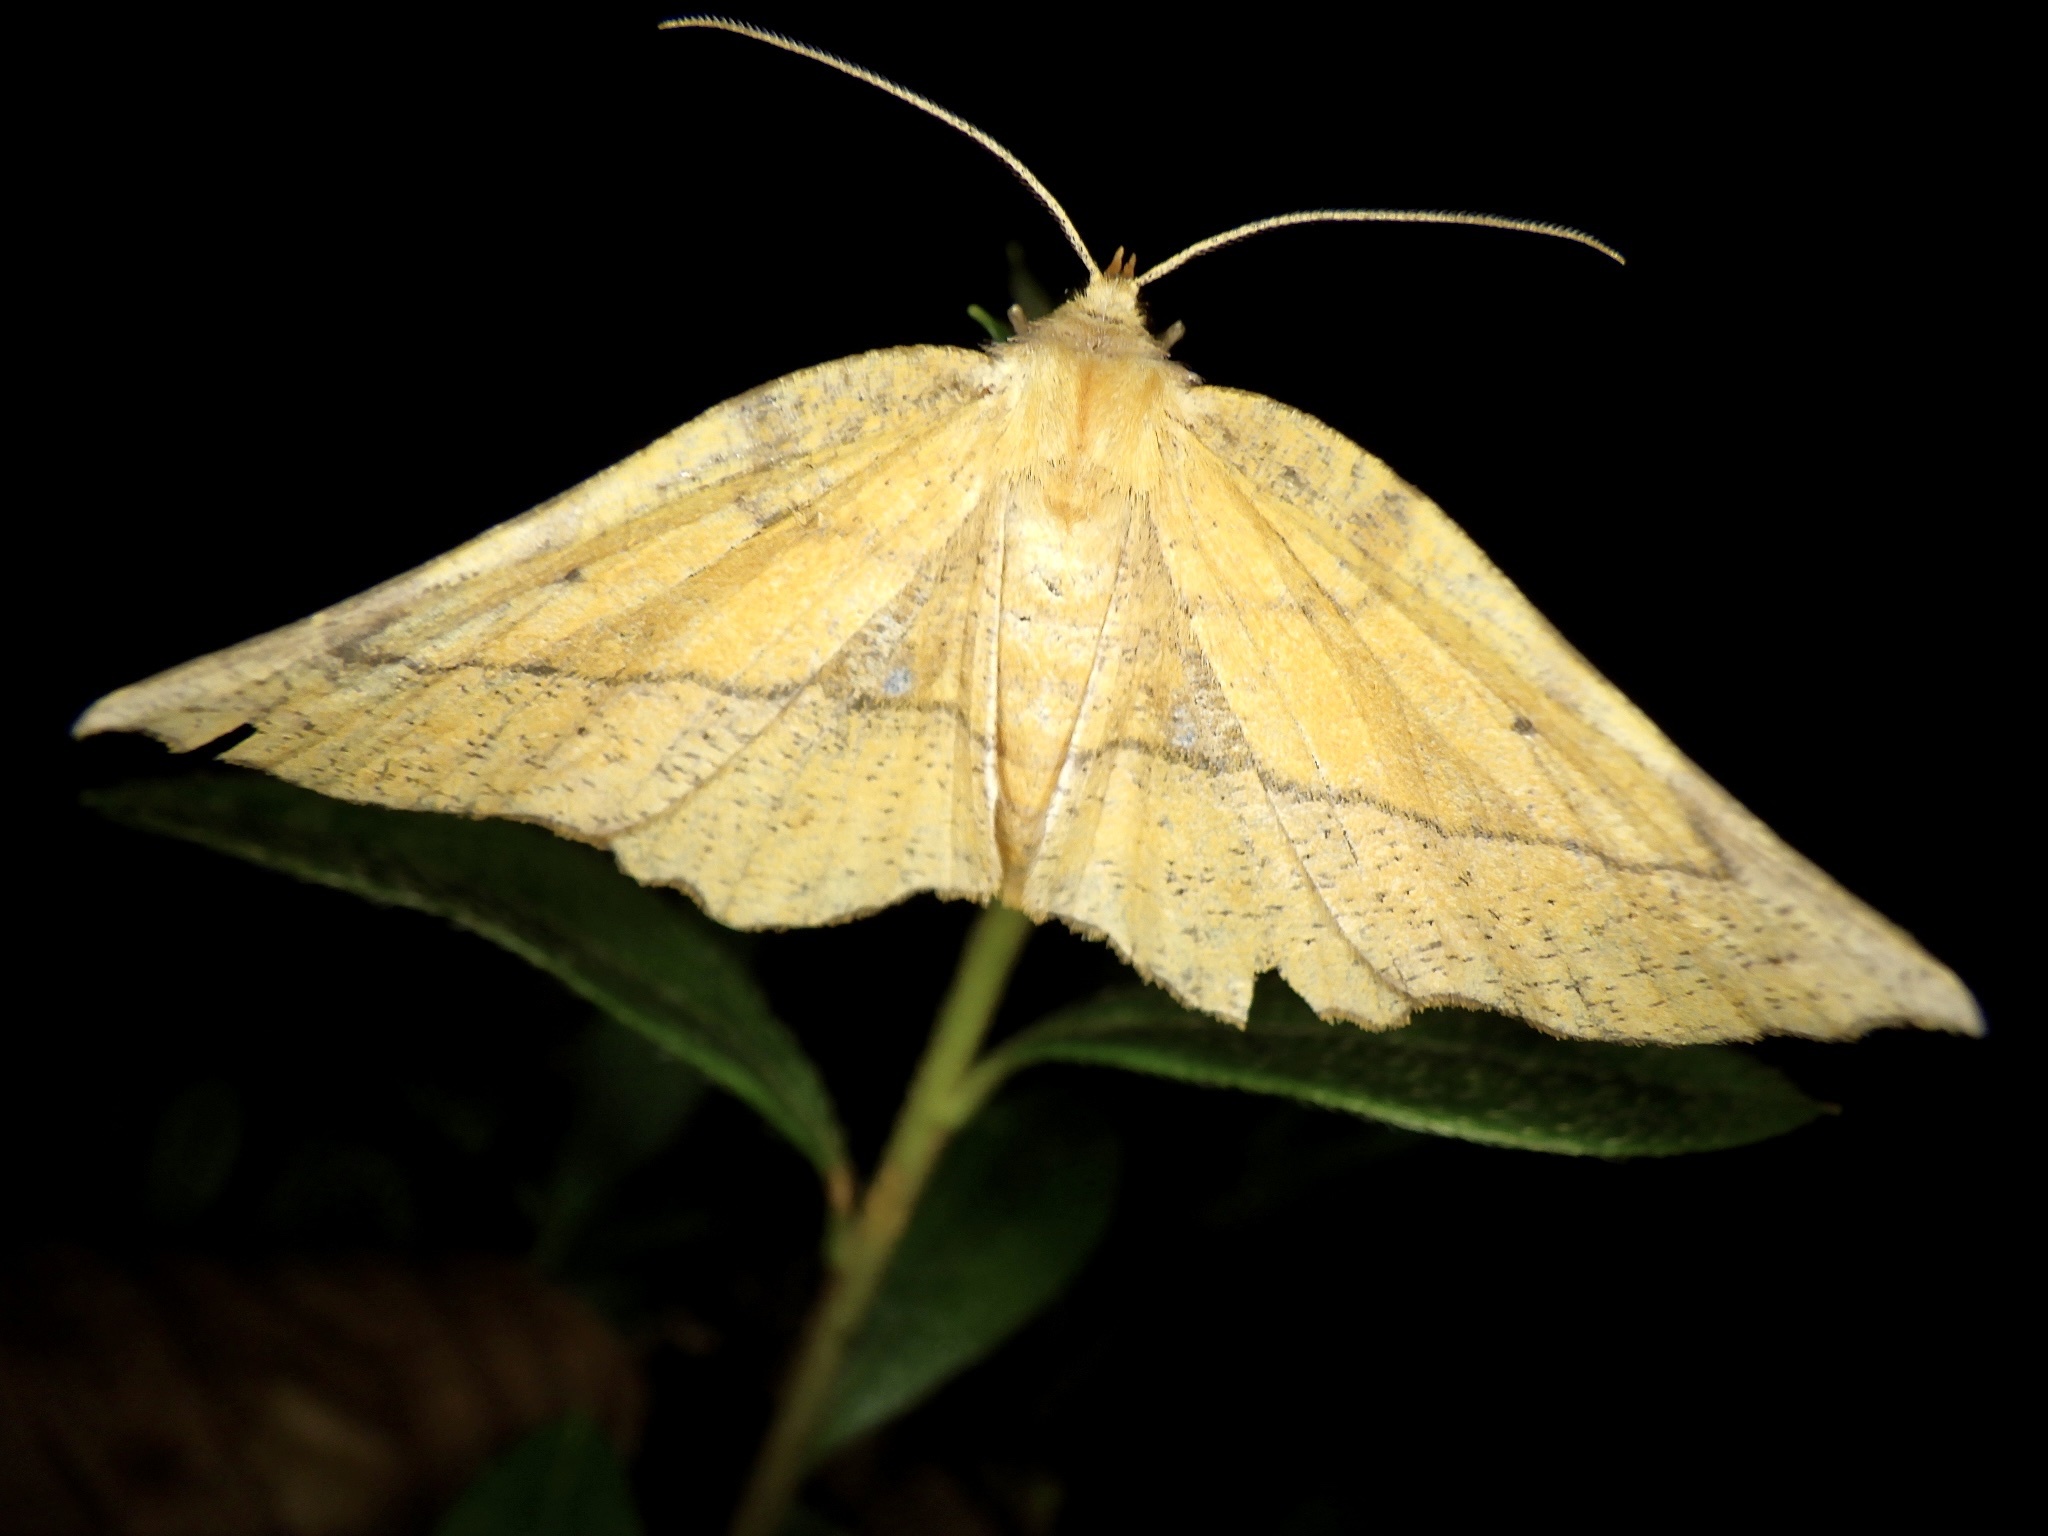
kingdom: Animalia
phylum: Arthropoda
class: Insecta
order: Lepidoptera
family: Geometridae
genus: Garaeus
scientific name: Garaeus specularis
